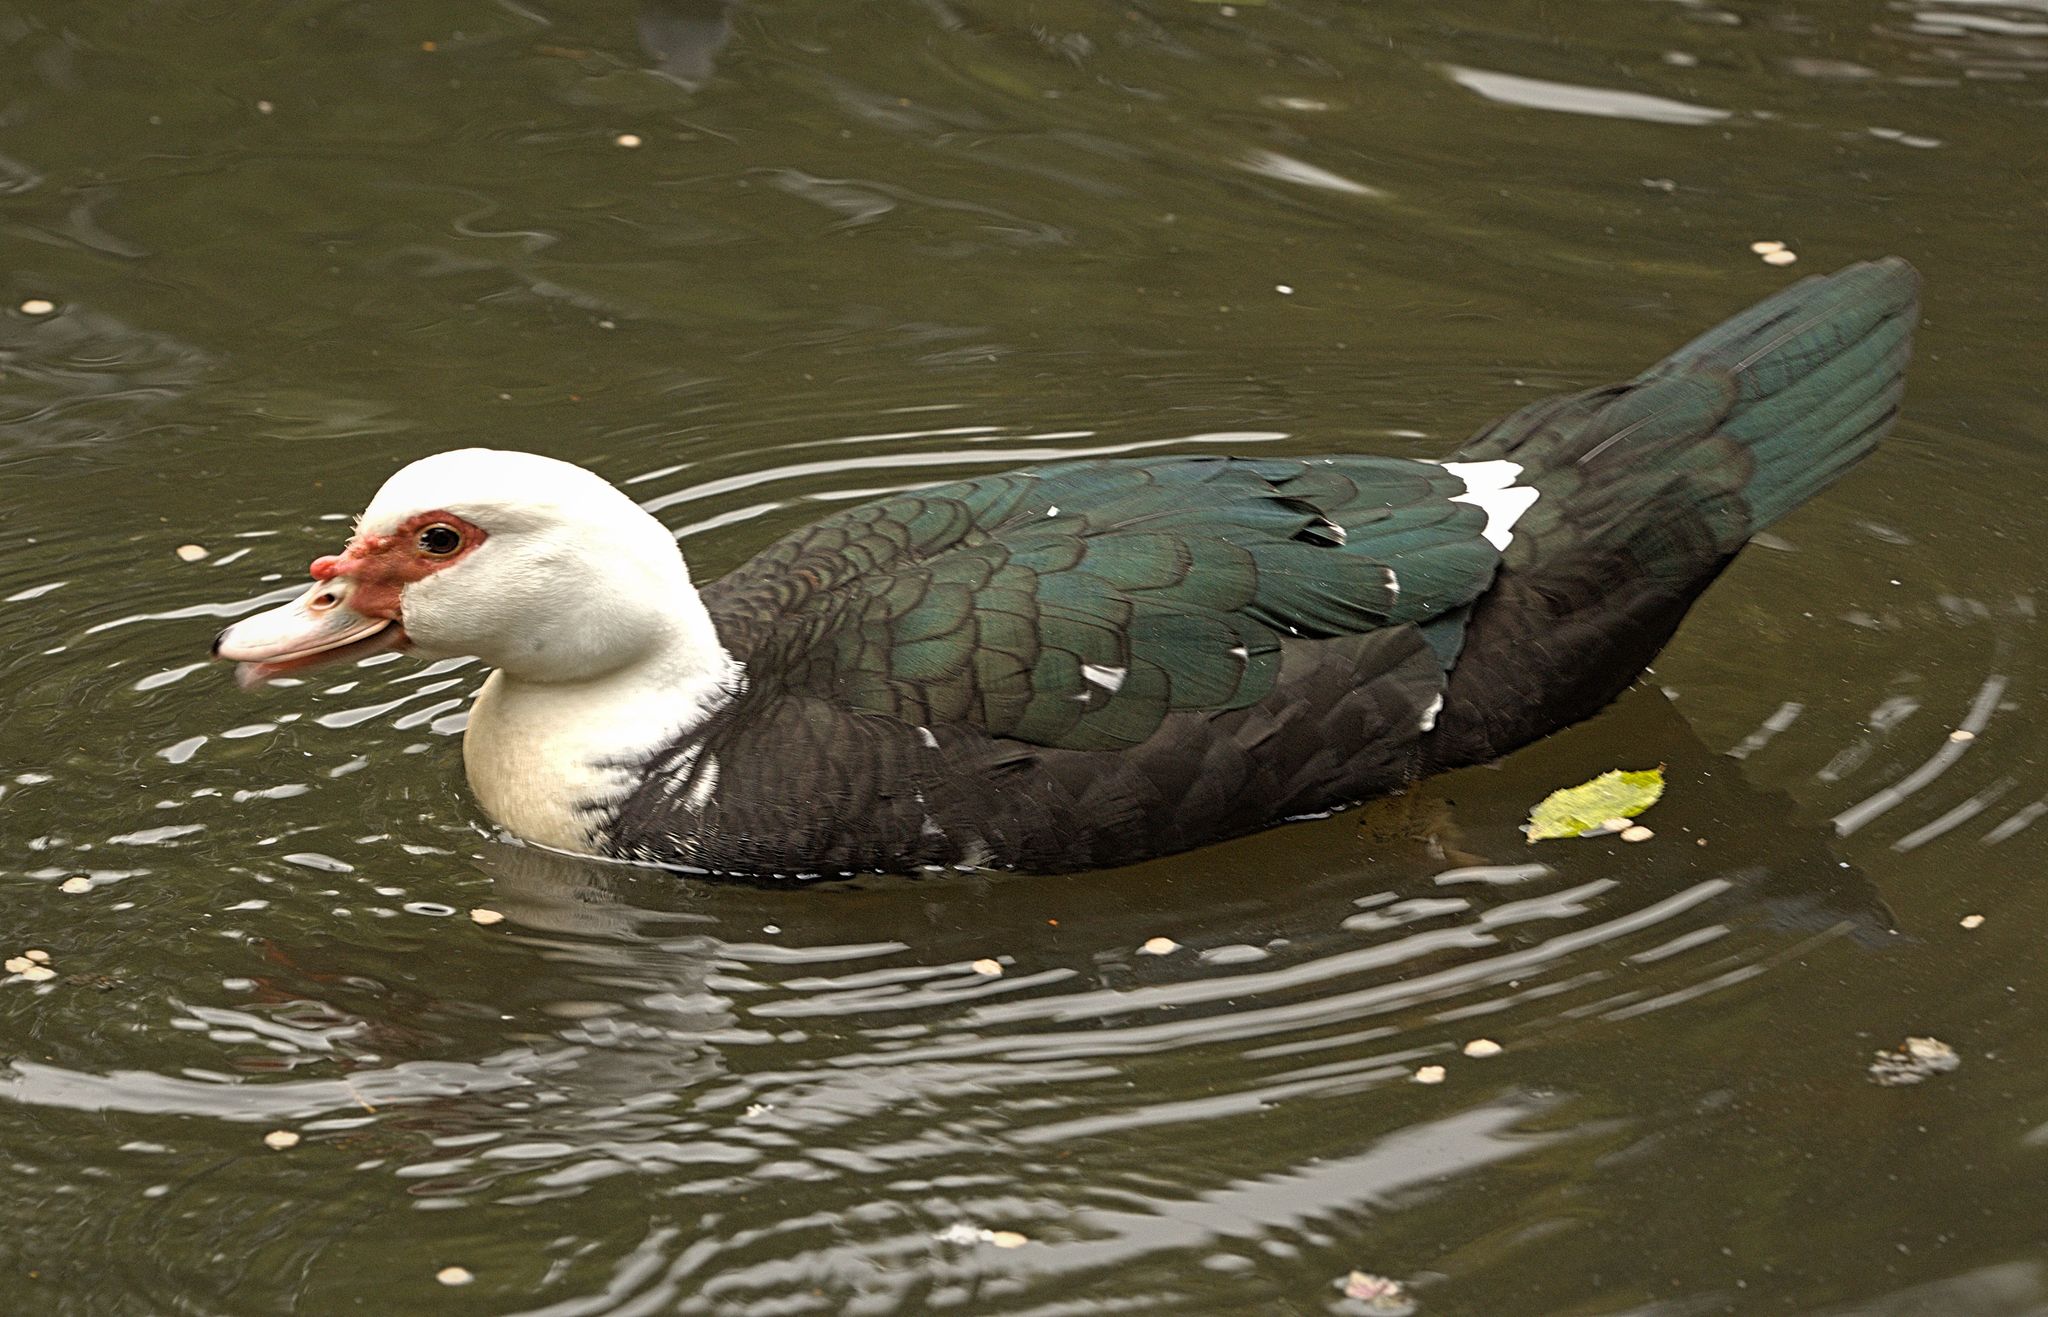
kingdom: Animalia
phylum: Chordata
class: Aves
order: Anseriformes
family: Anatidae
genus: Cairina
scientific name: Cairina moschata
